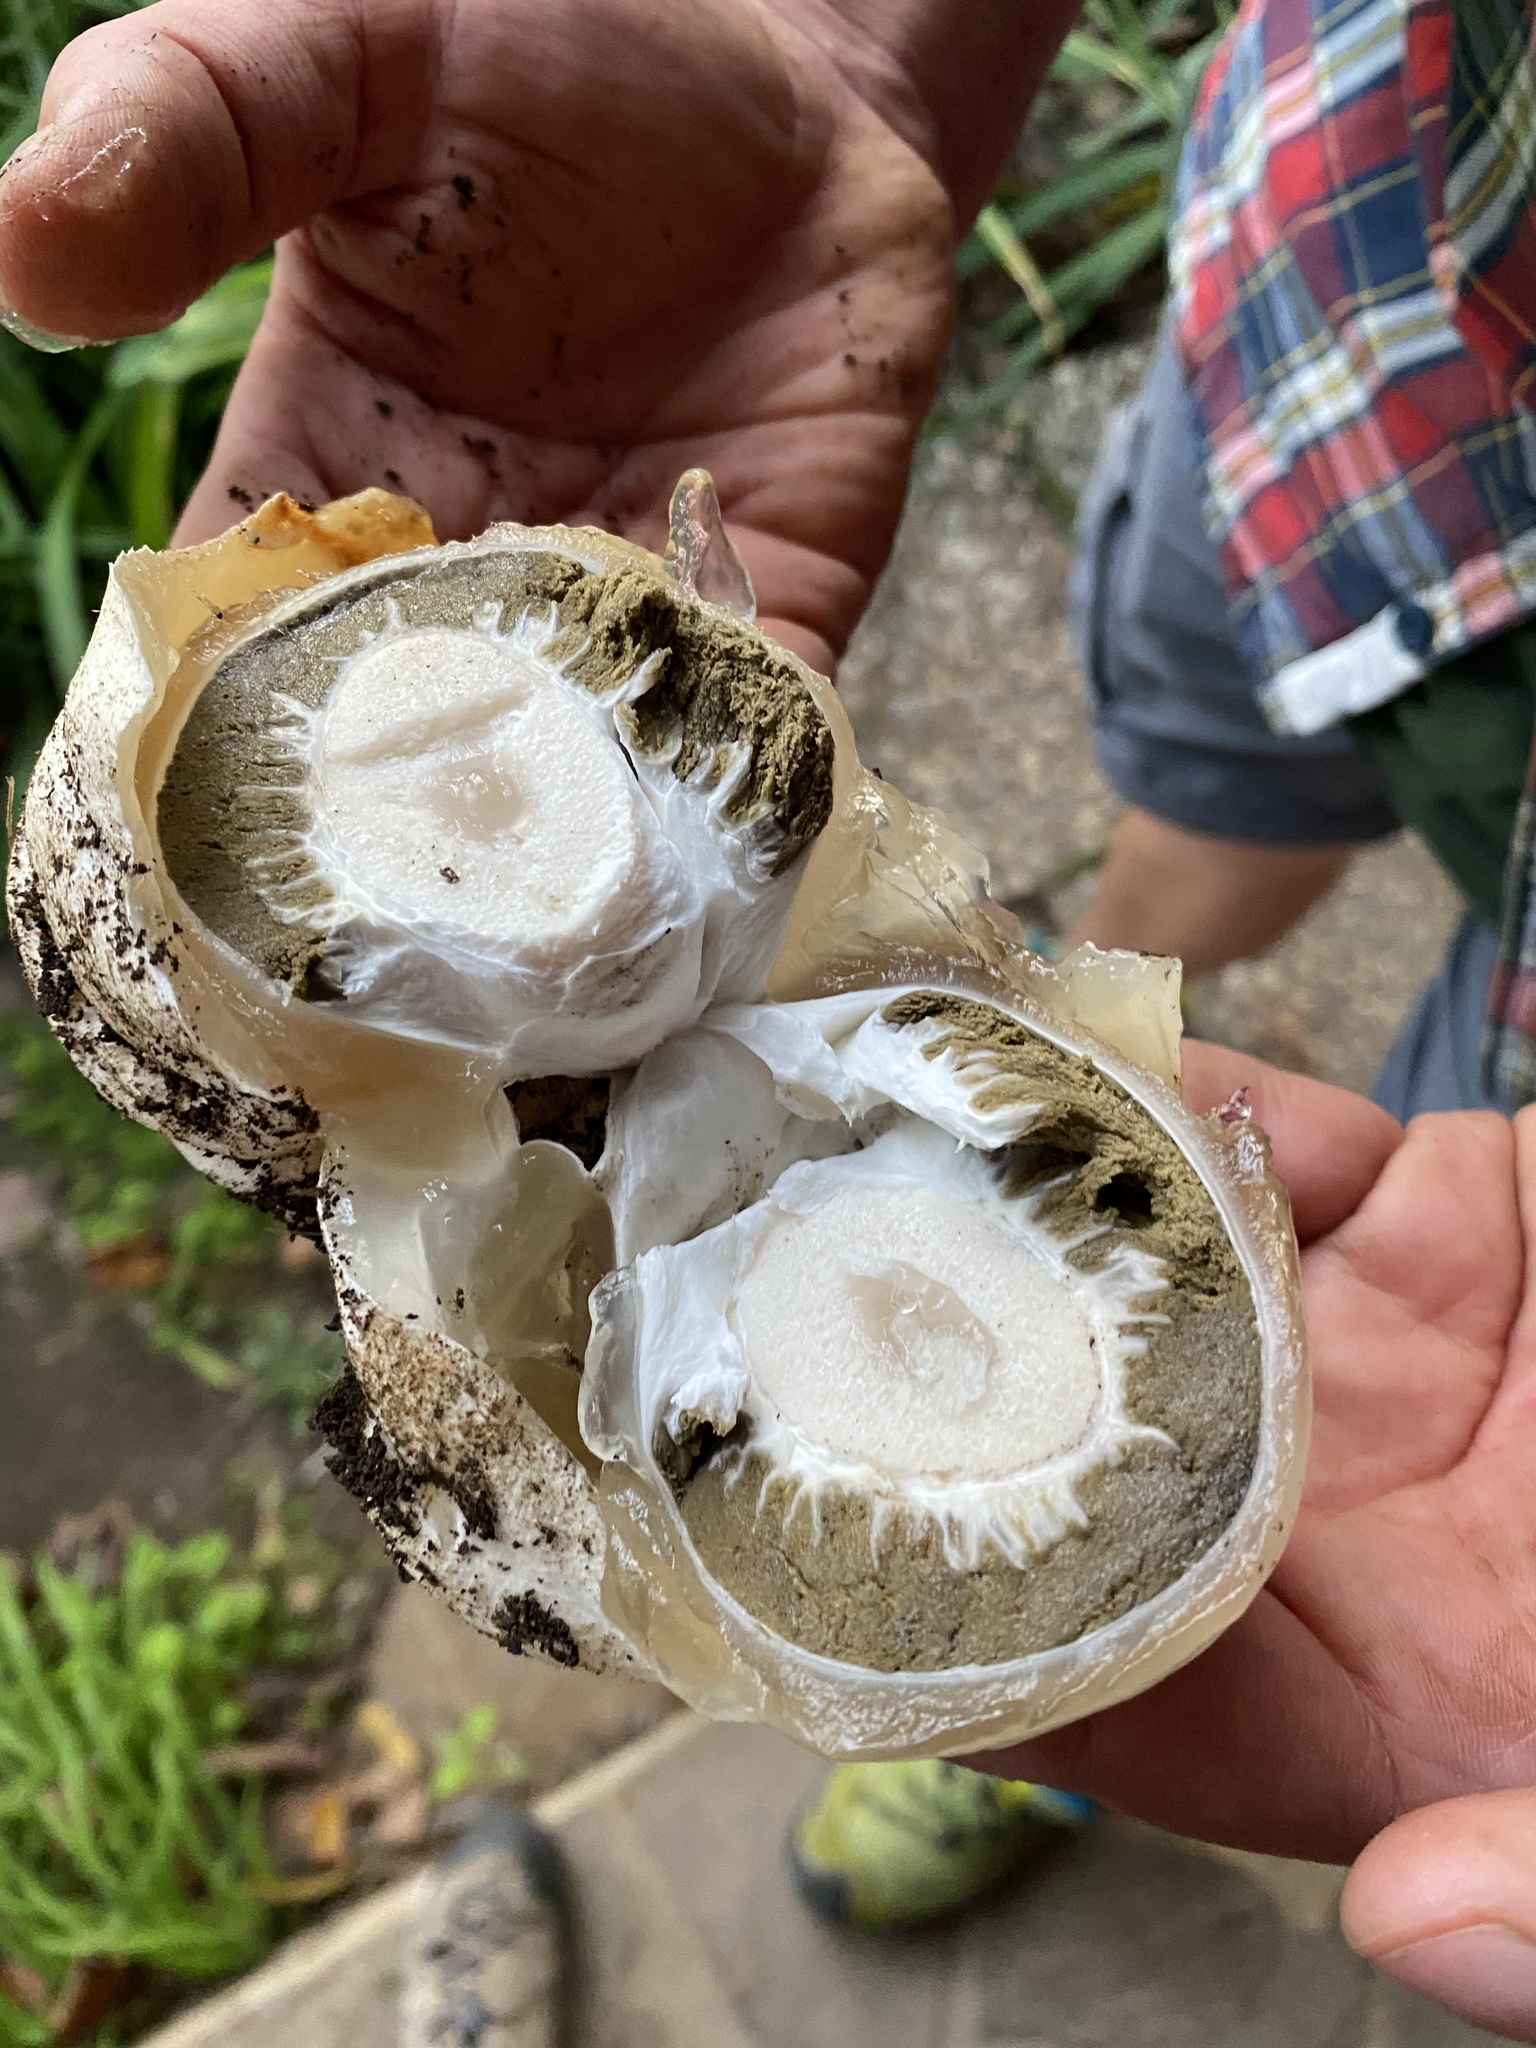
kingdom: Fungi
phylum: Basidiomycota
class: Agaricomycetes
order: Phallales
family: Phallaceae
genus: Phallus
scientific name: Phallus impudicus
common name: Common stinkhorn
